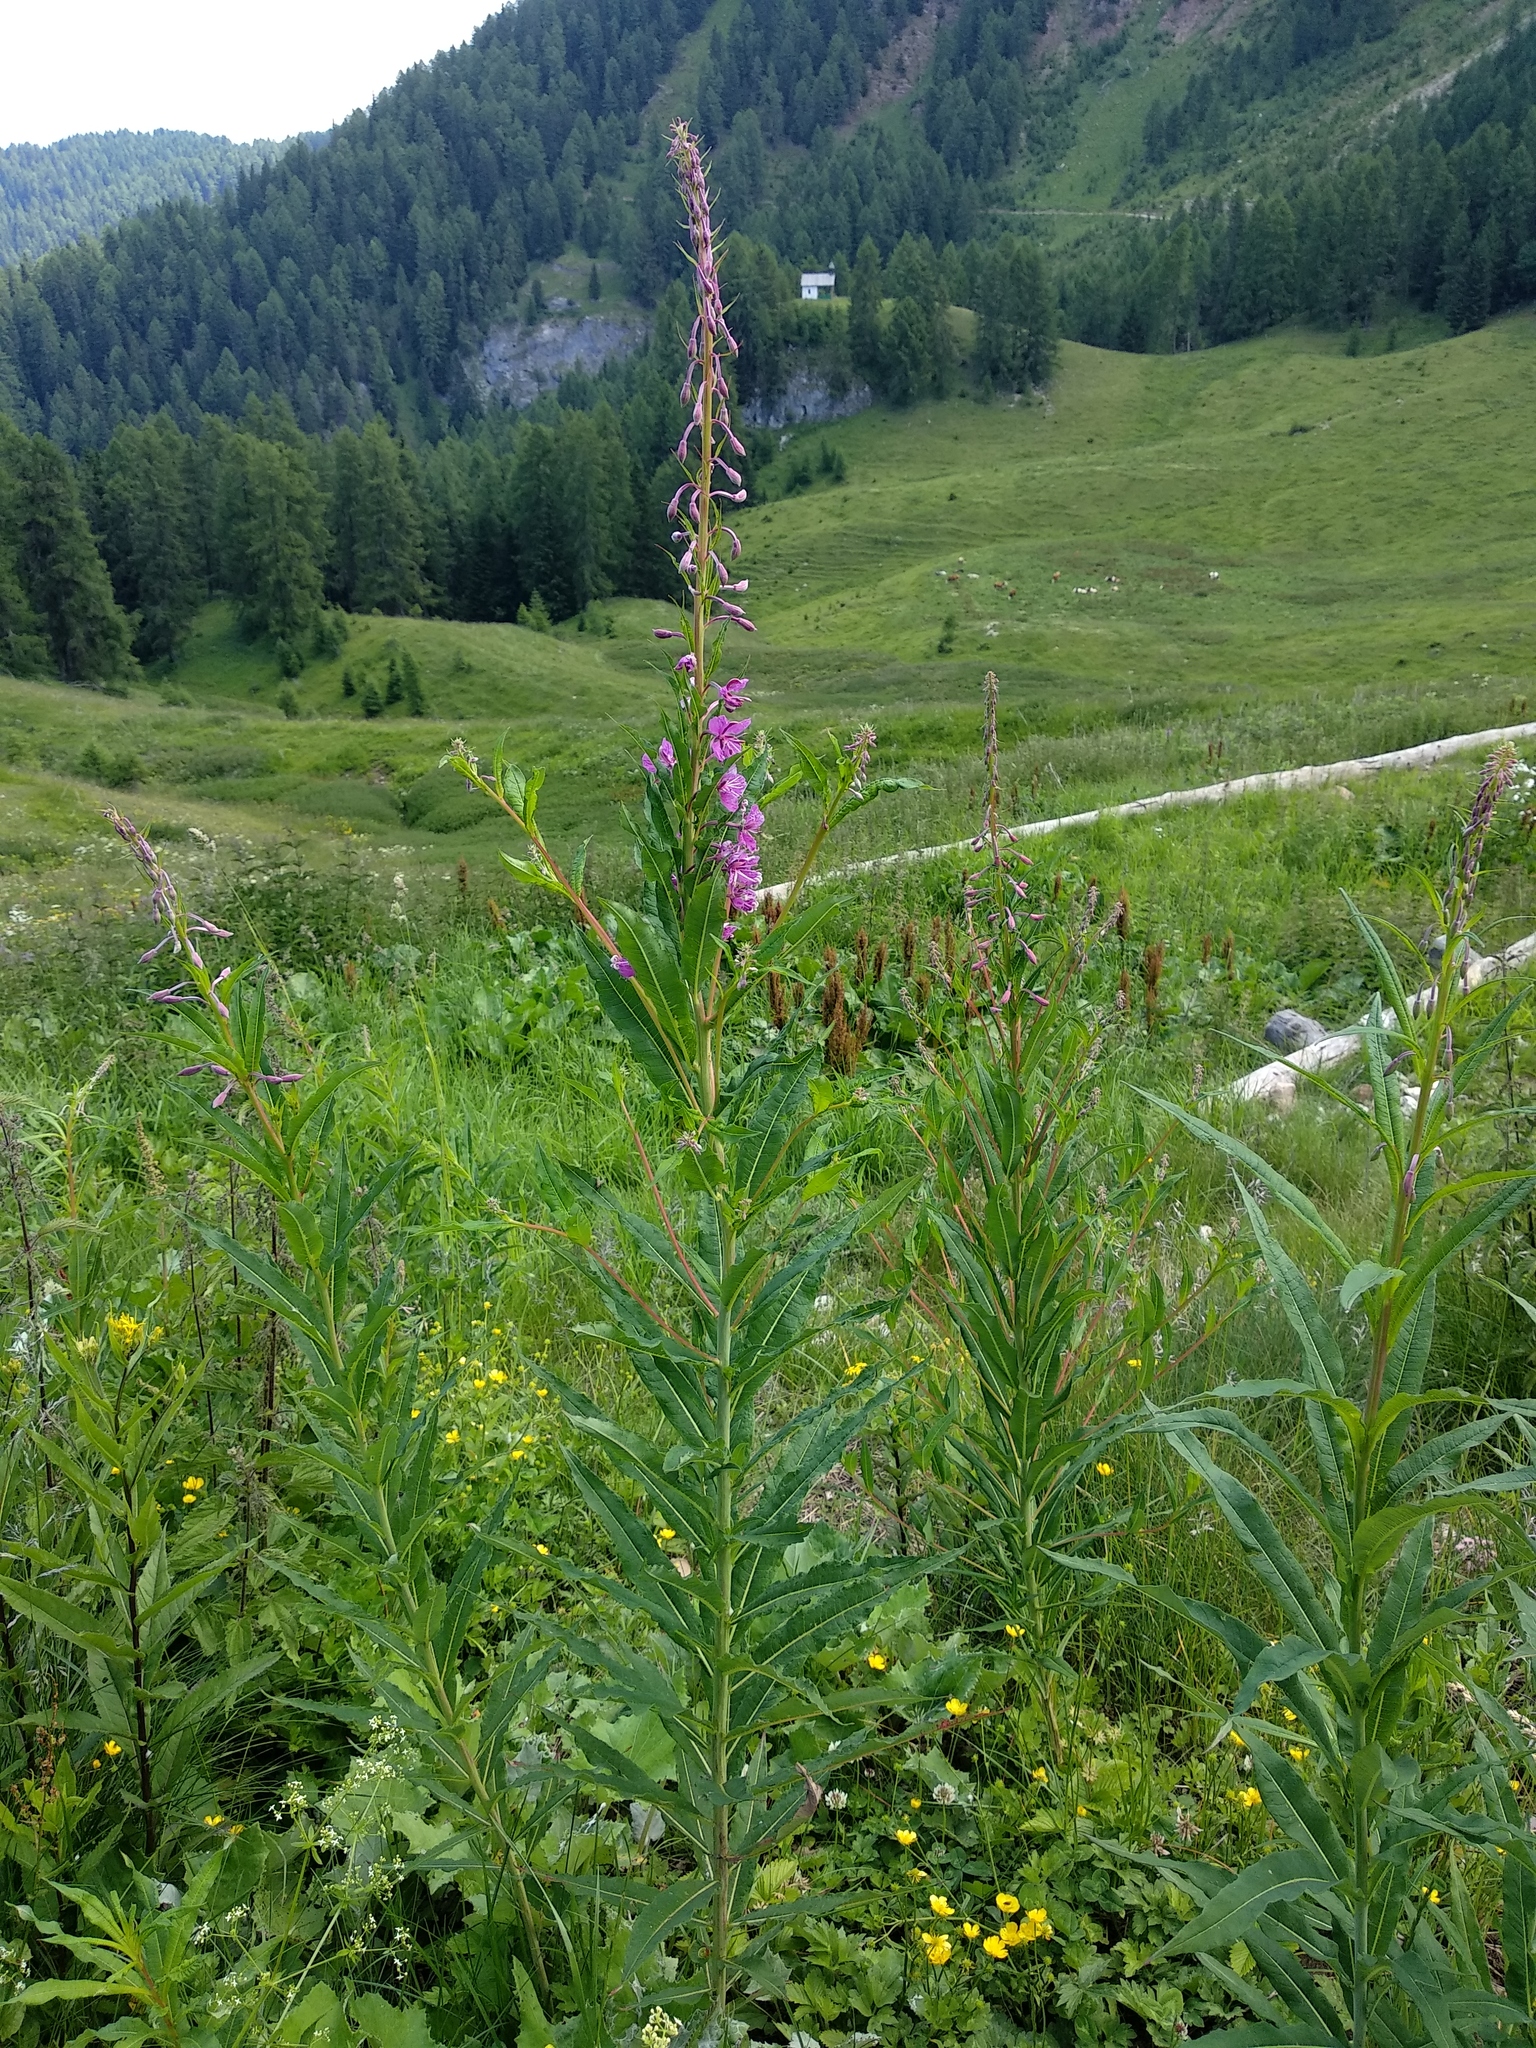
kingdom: Plantae
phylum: Tracheophyta
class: Magnoliopsida
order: Myrtales
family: Onagraceae
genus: Chamaenerion
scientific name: Chamaenerion angustifolium
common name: Fireweed
